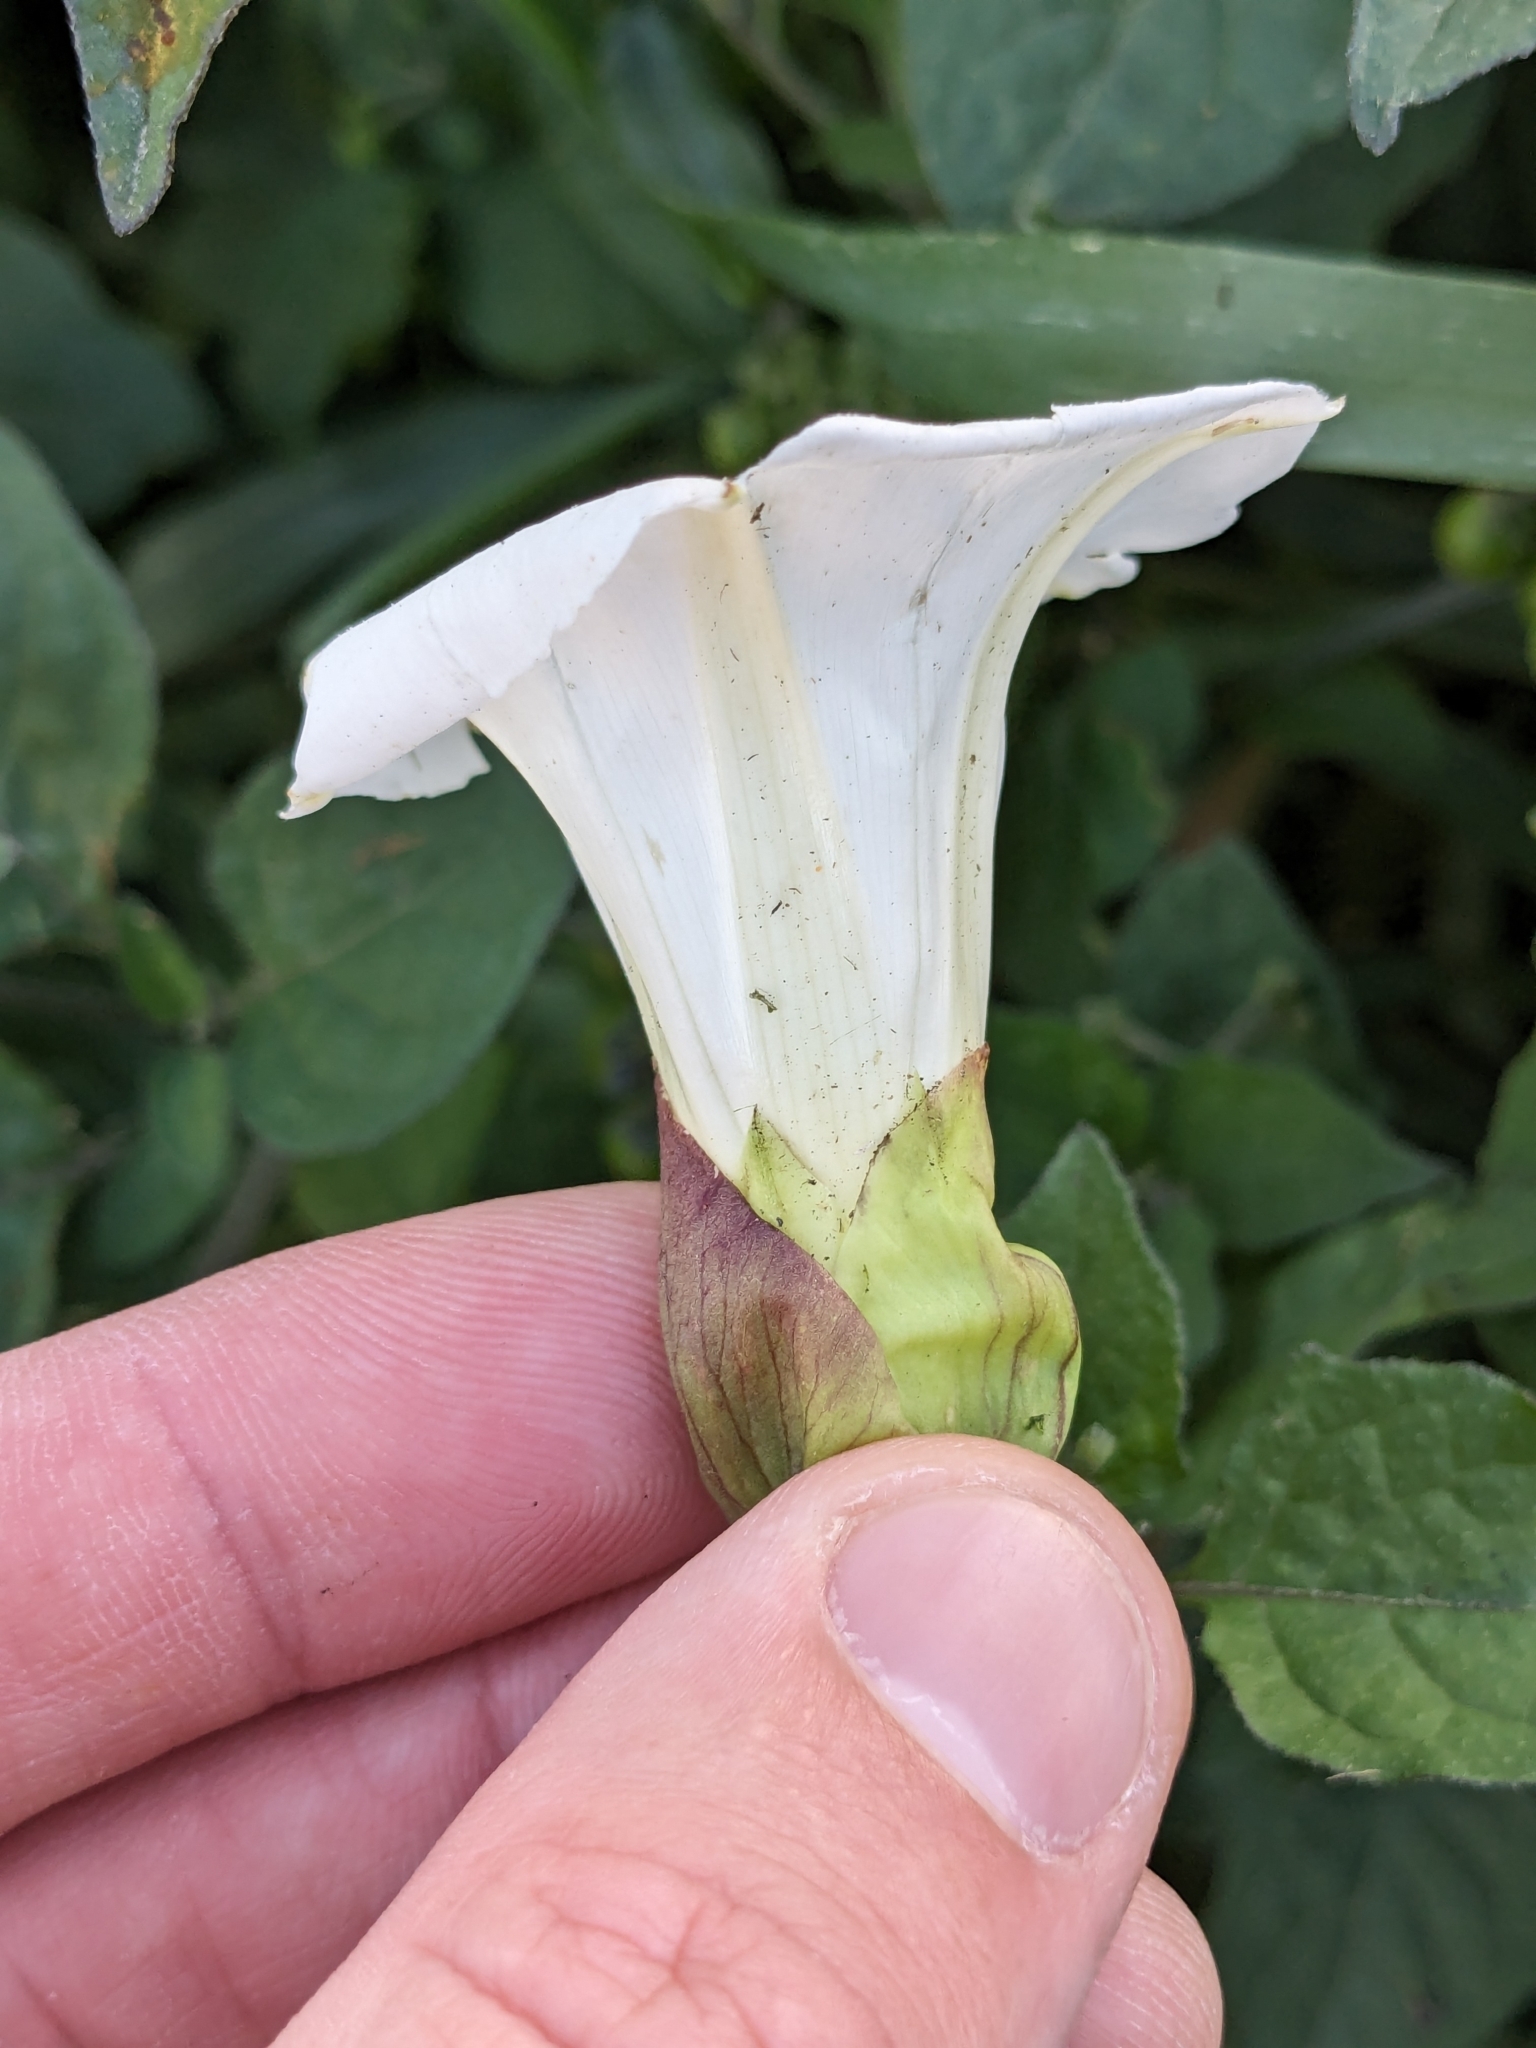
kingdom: Plantae
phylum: Tracheophyta
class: Magnoliopsida
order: Solanales
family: Convolvulaceae
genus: Calystegia
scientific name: Calystegia silvatica
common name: Large bindweed
